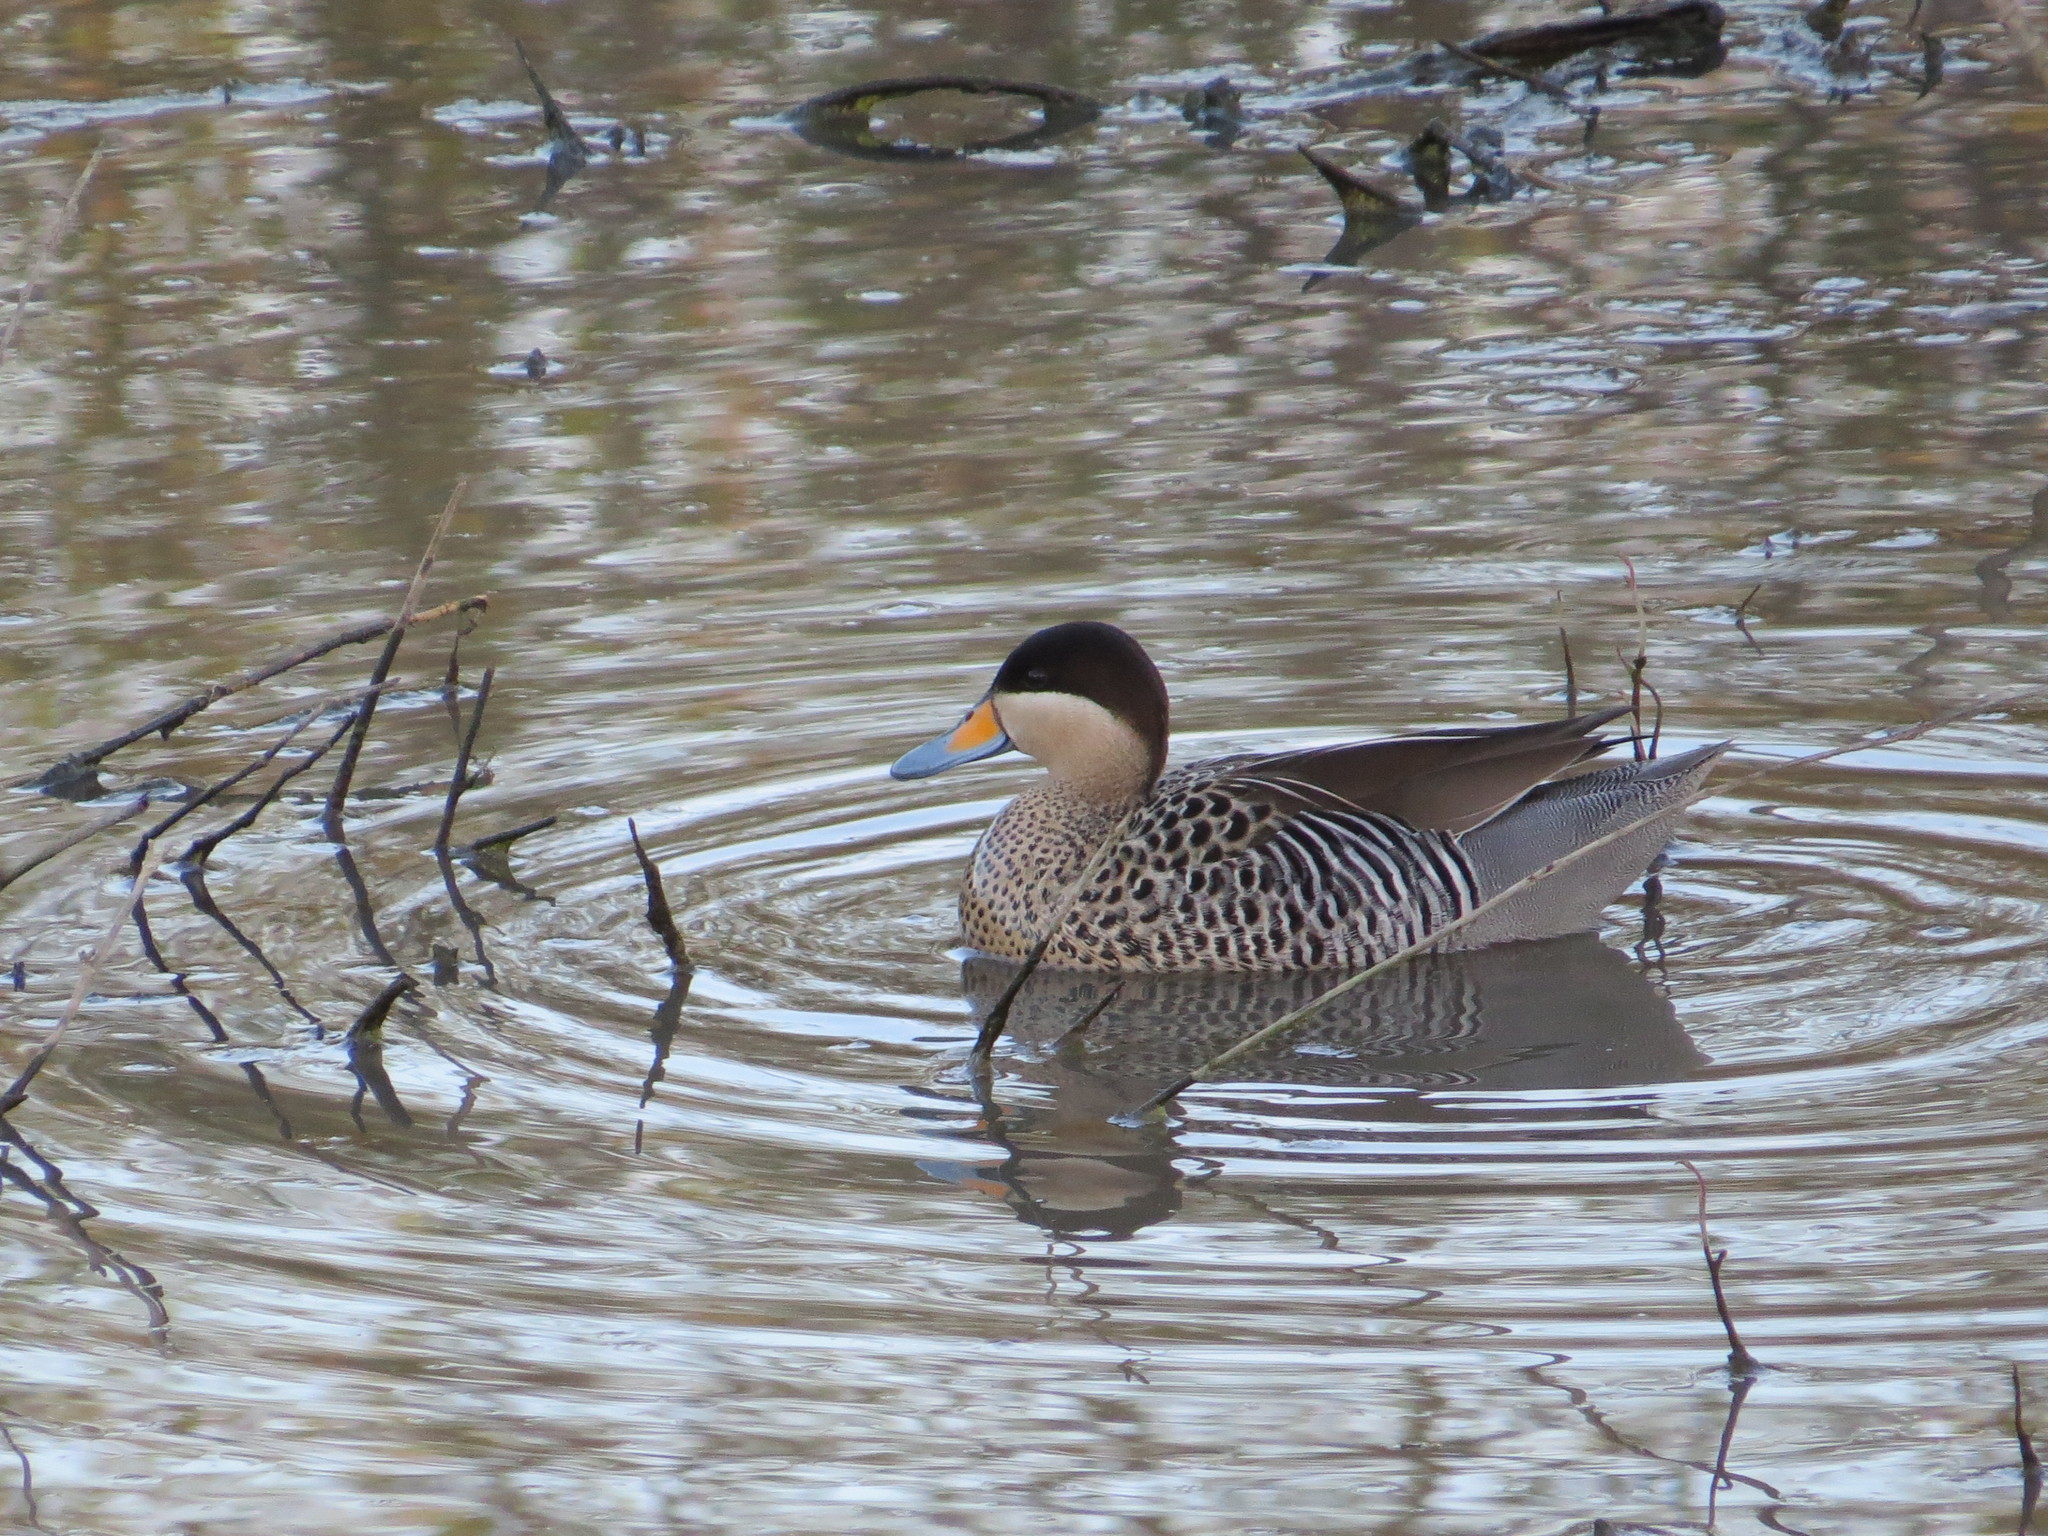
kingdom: Animalia
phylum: Chordata
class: Aves
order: Anseriformes
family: Anatidae
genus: Spatula
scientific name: Spatula versicolor
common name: Silver teal
